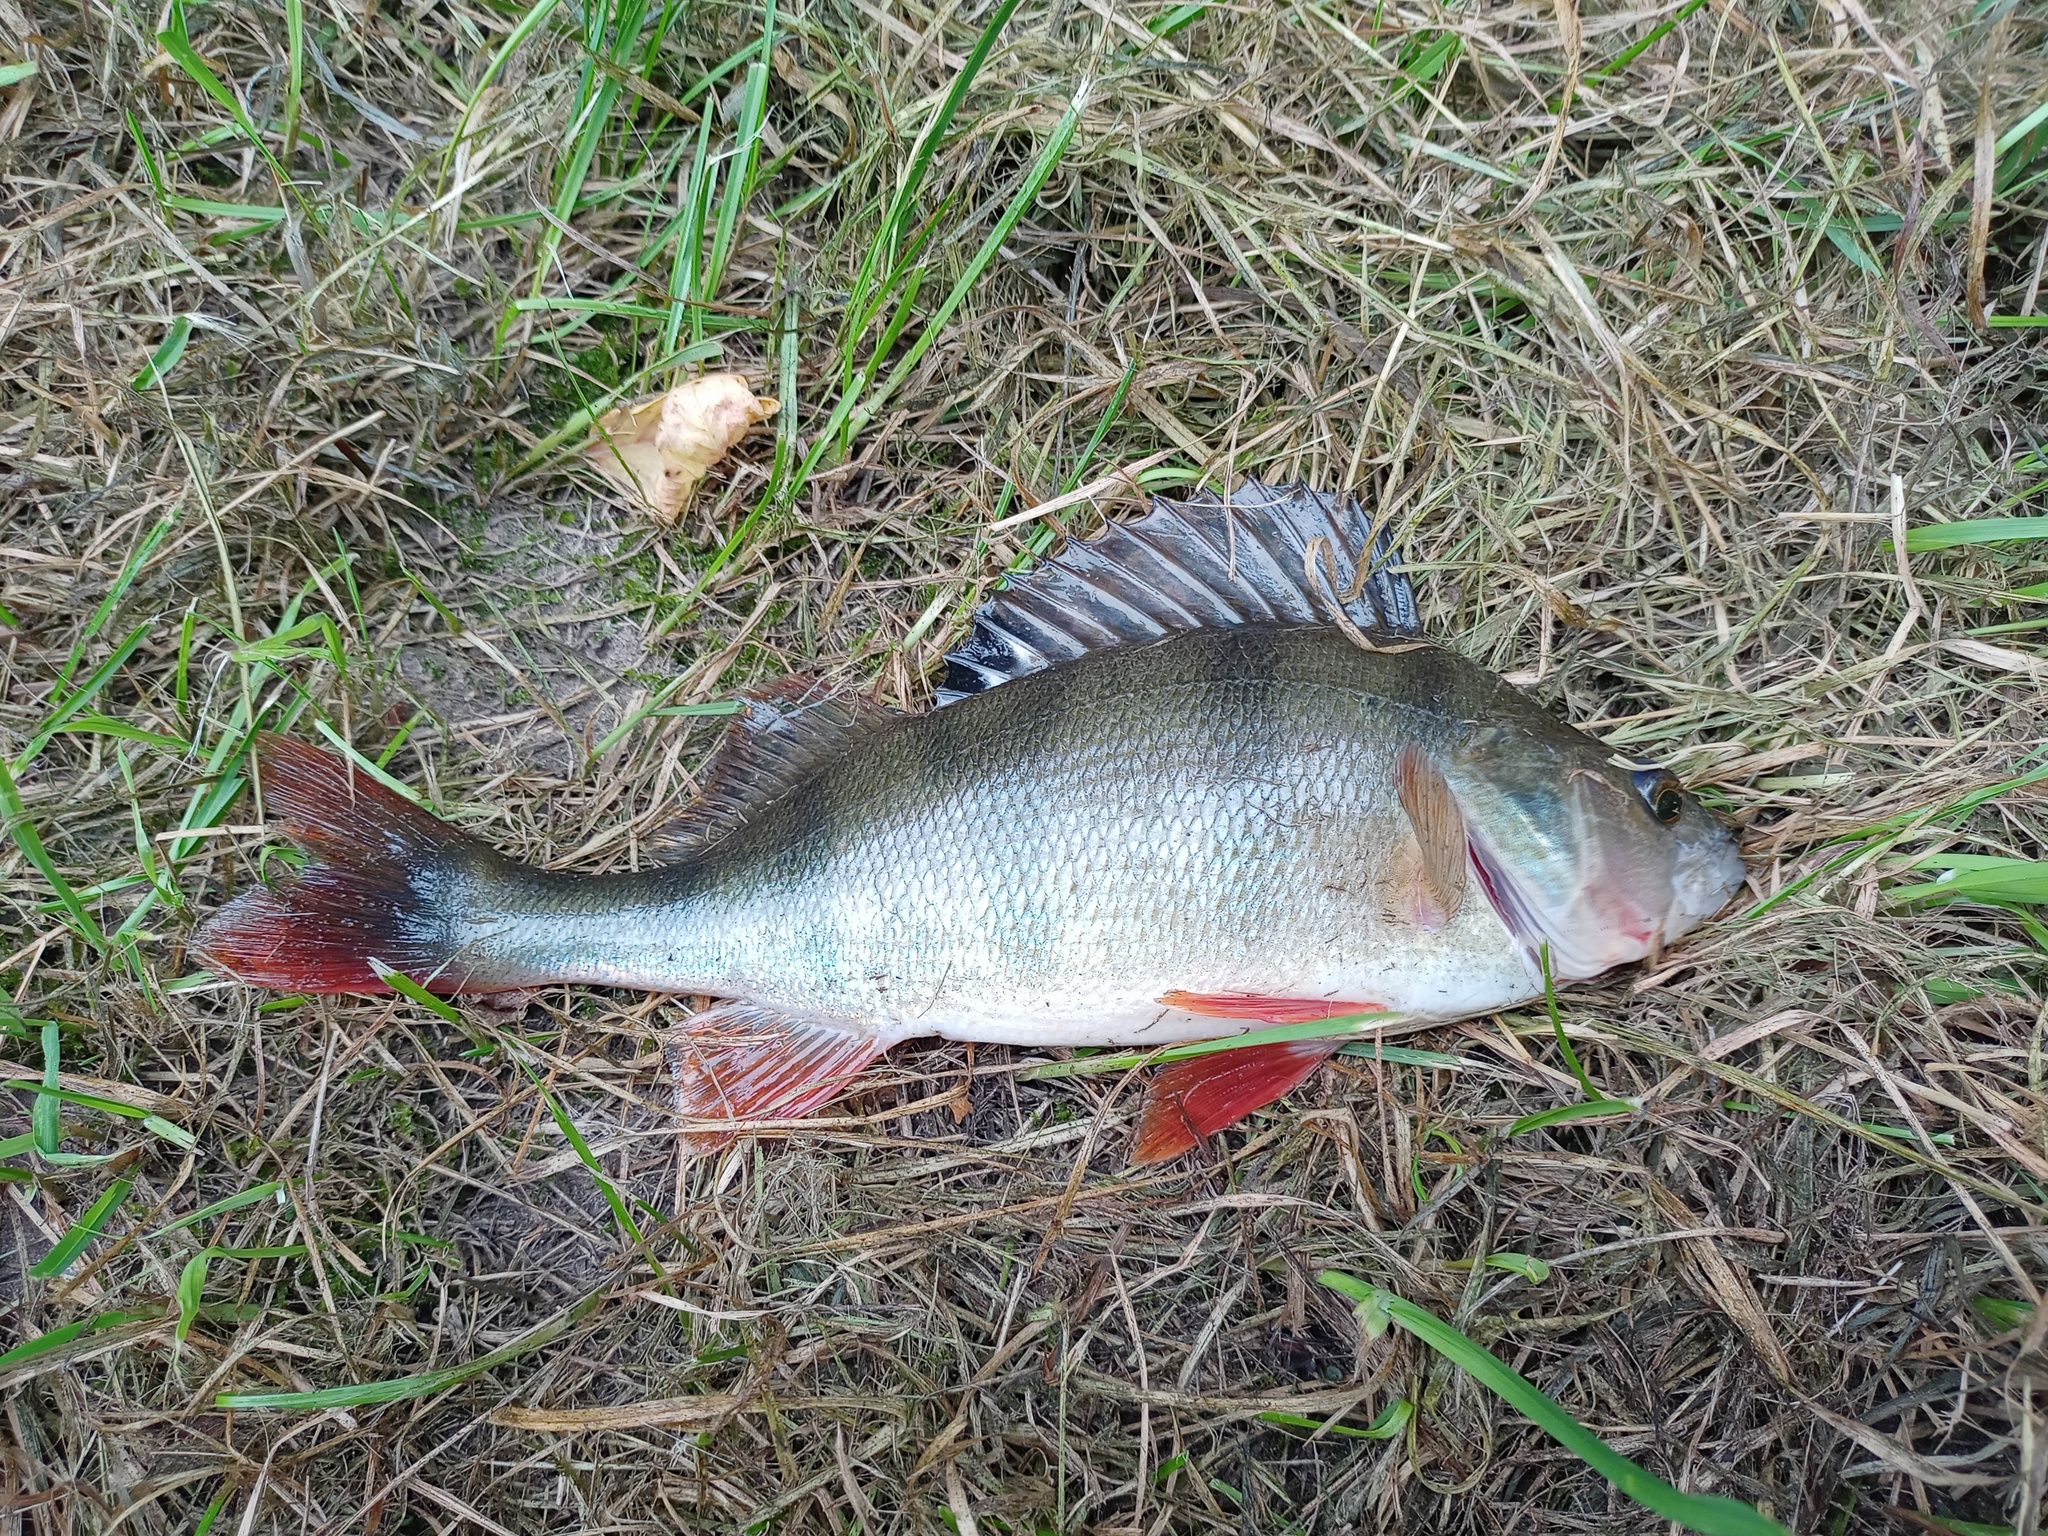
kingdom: Animalia
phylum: Chordata
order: Perciformes
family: Percidae
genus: Perca
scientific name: Perca fluviatilis
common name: Perch
